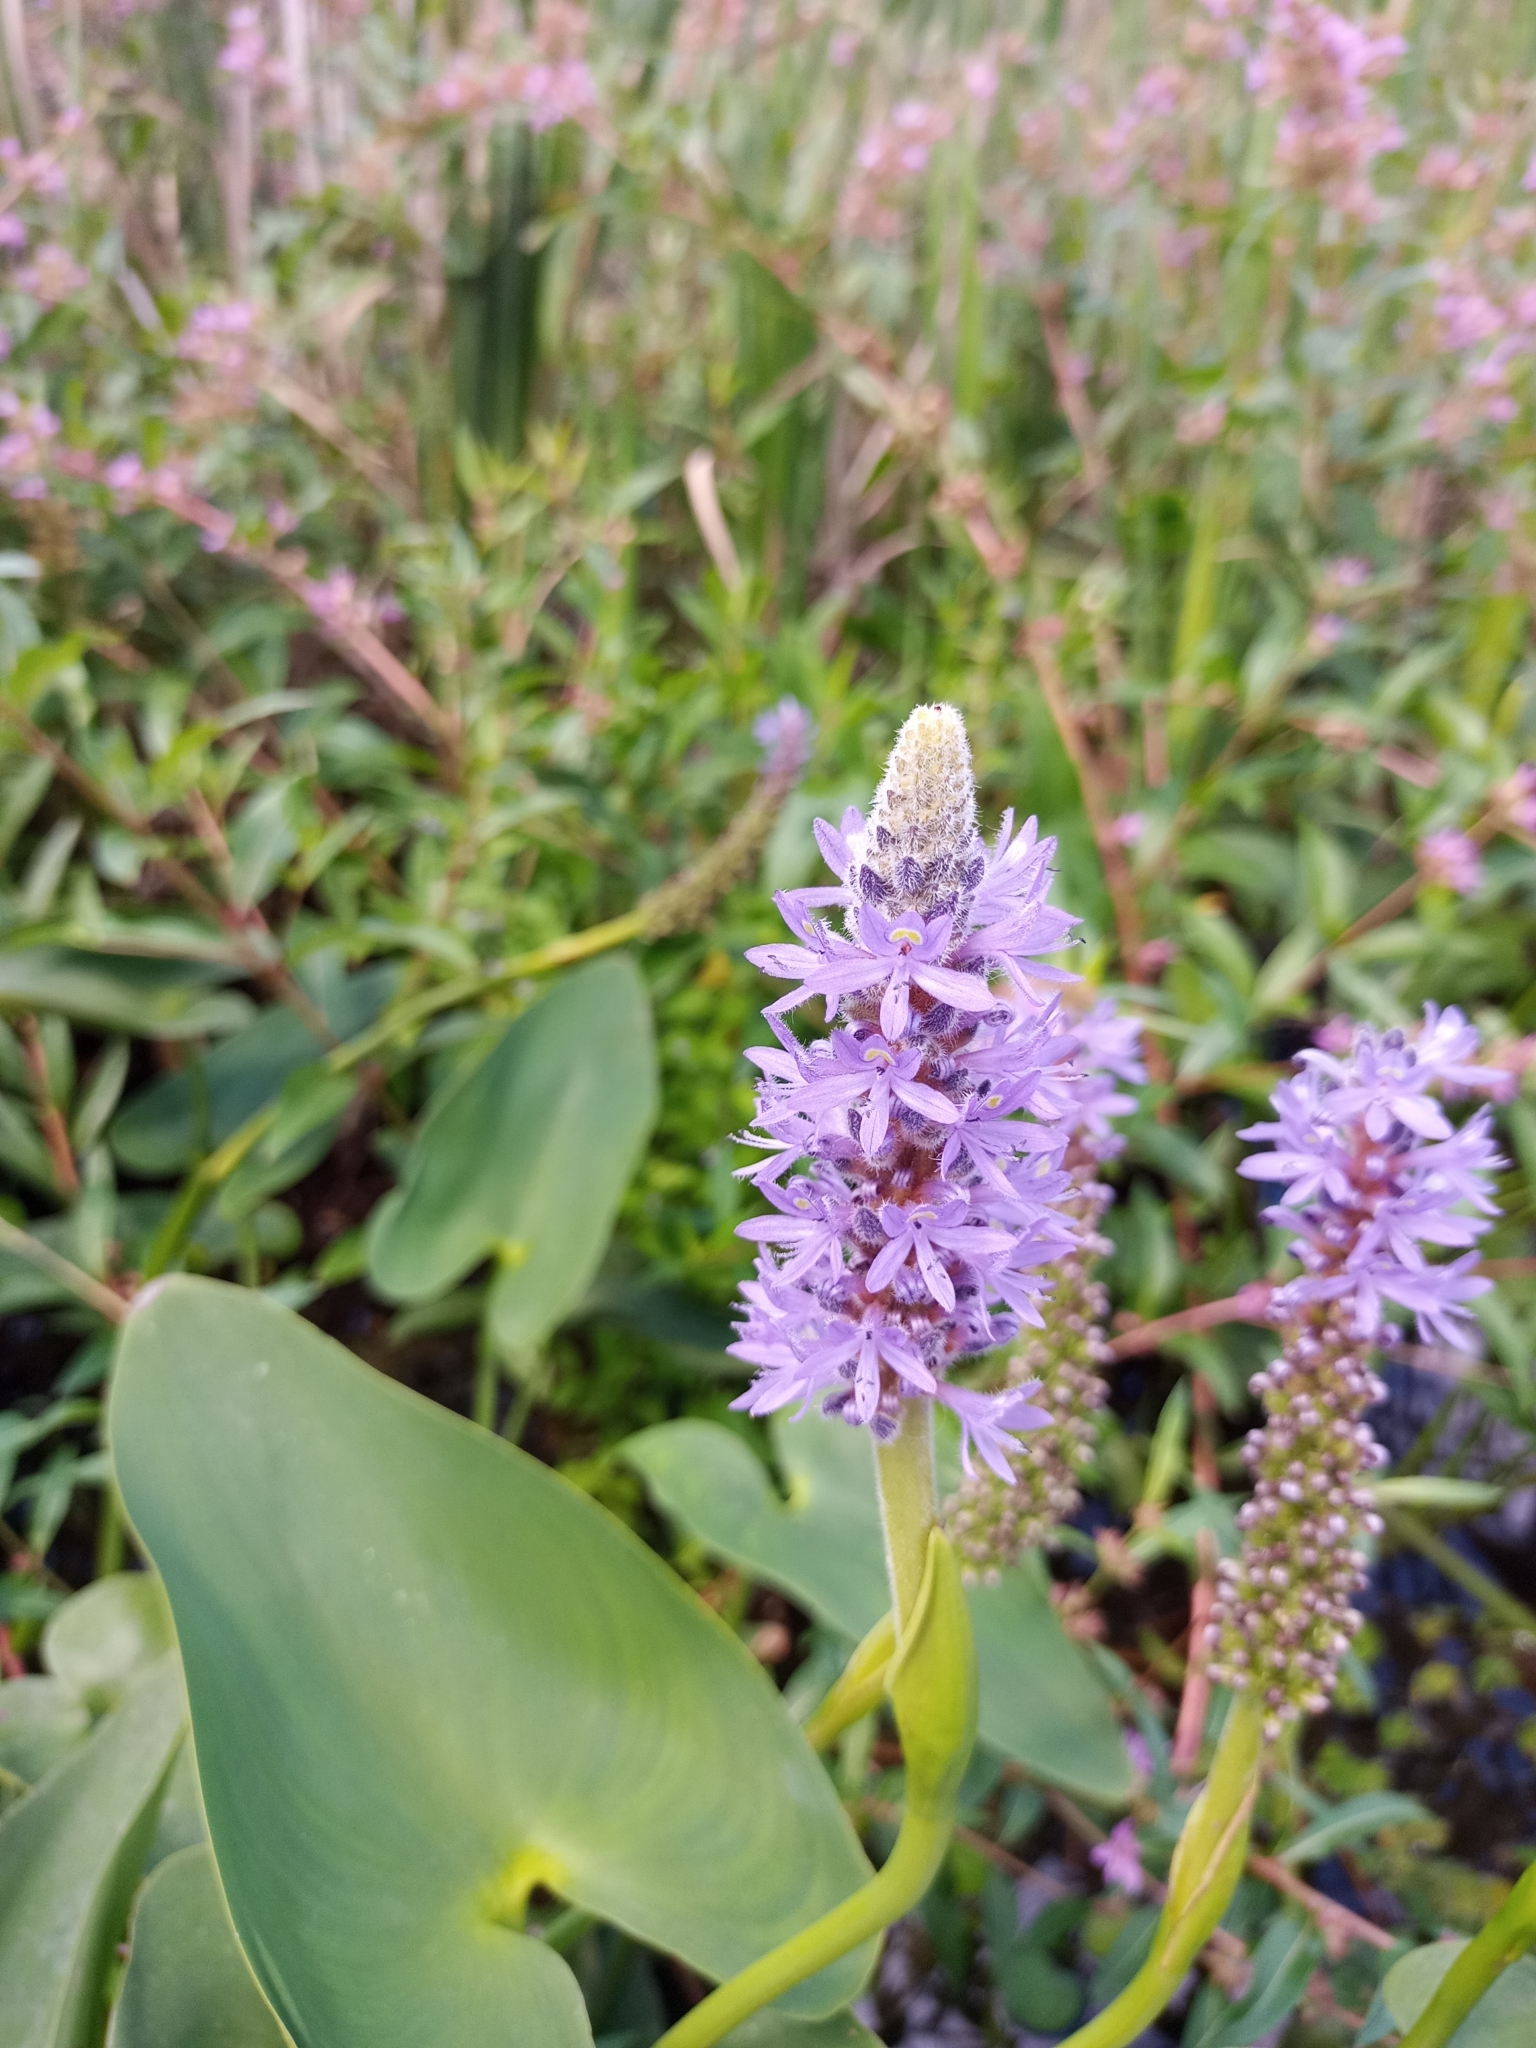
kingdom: Plantae
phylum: Tracheophyta
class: Liliopsida
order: Commelinales
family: Pontederiaceae
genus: Pontederia
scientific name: Pontederia cordata
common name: Pickerelweed
